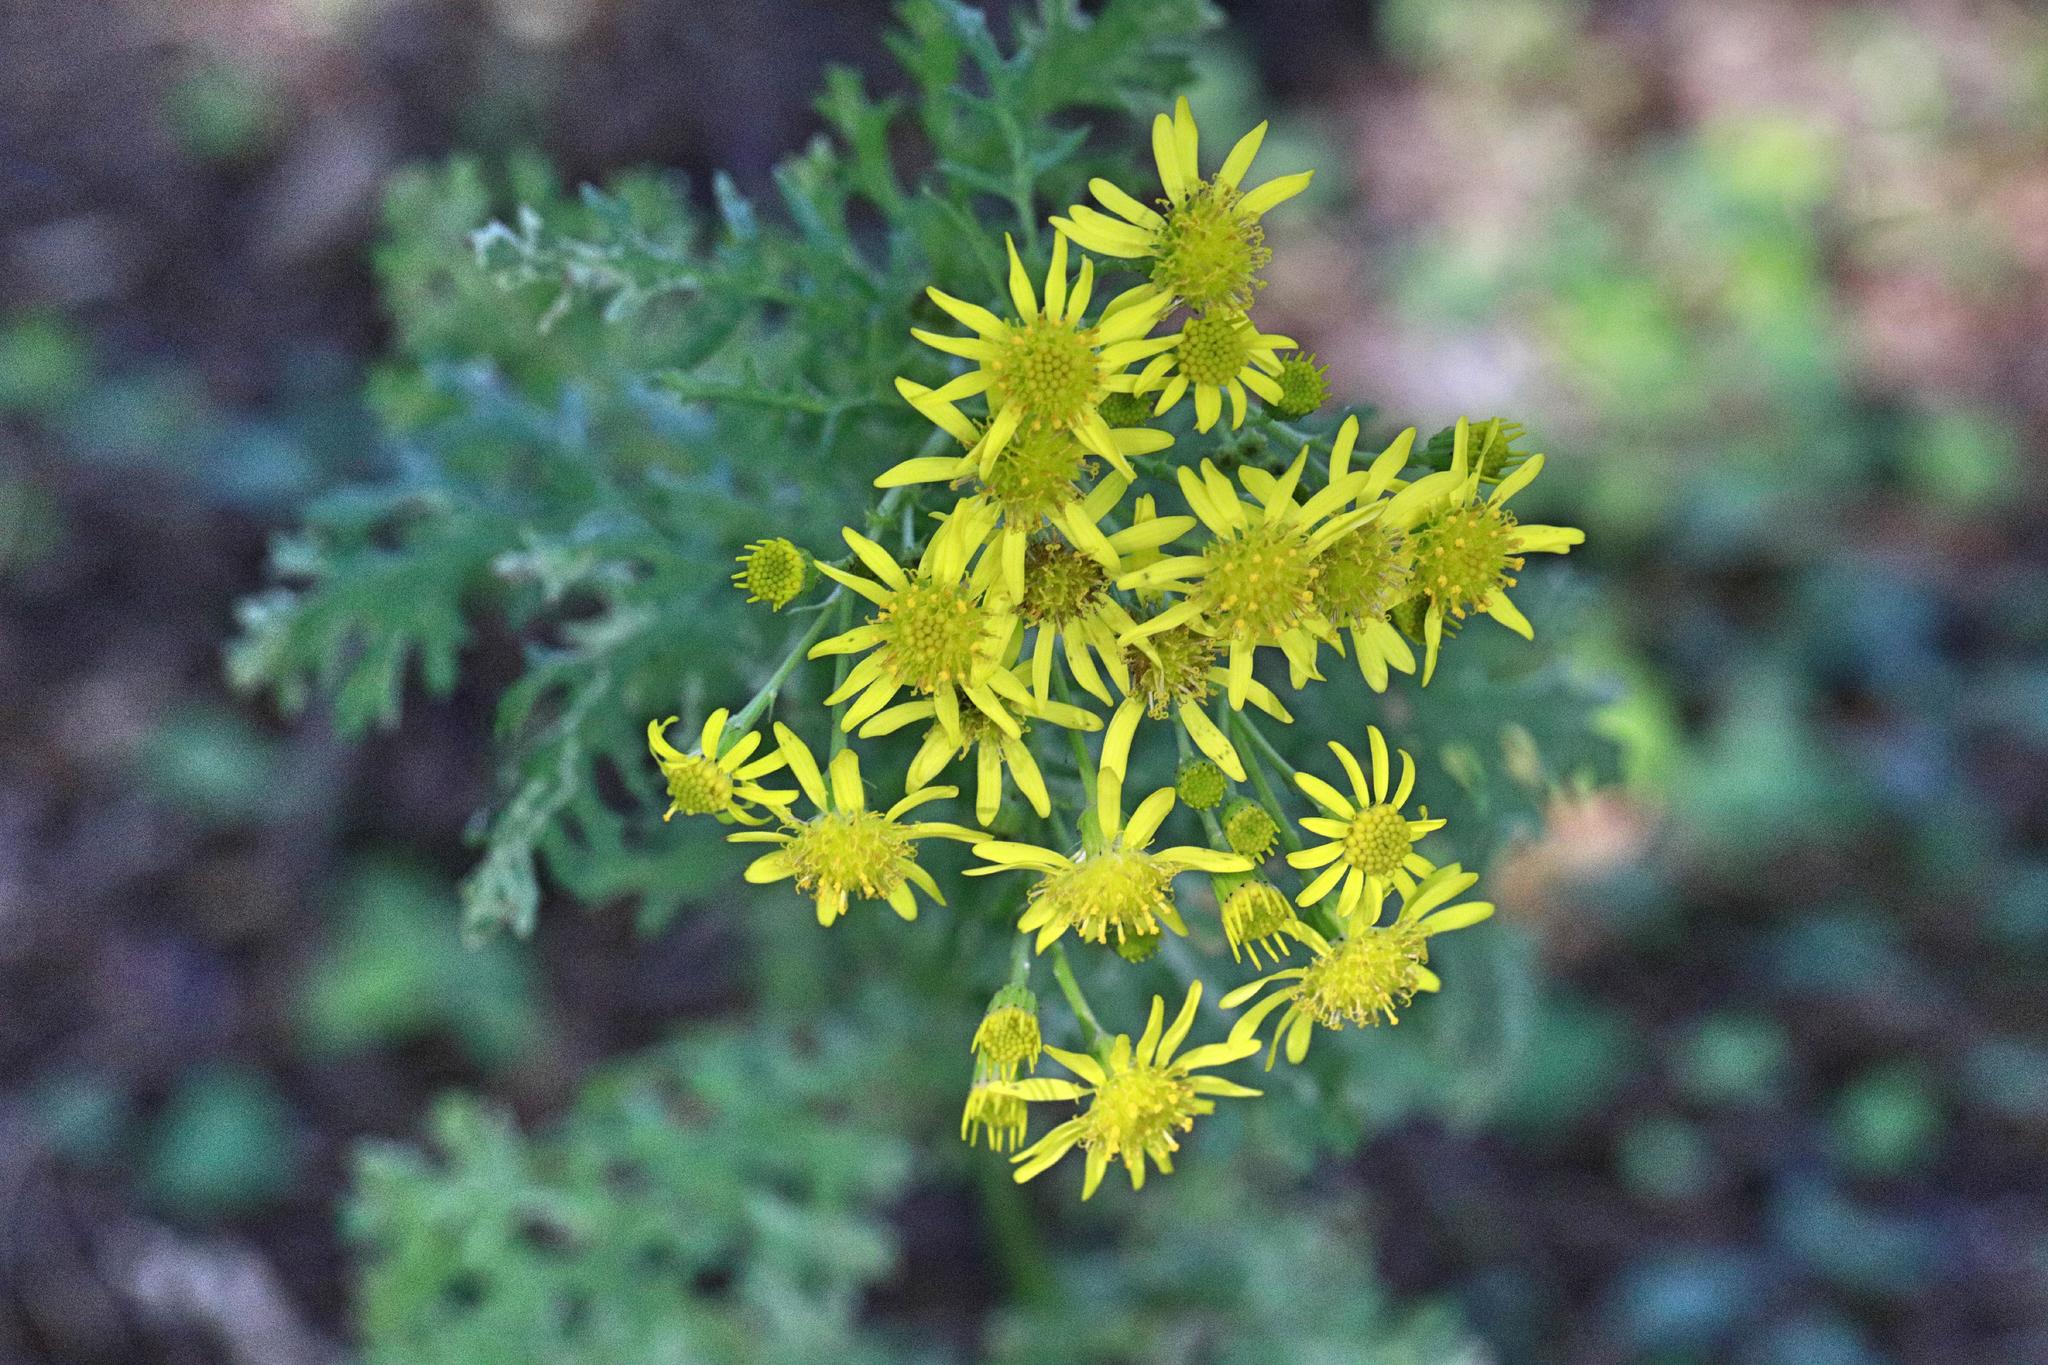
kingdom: Plantae
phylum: Tracheophyta
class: Magnoliopsida
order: Asterales
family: Asteraceae
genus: Jacobaea
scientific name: Jacobaea vulgaris
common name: Stinking willie
